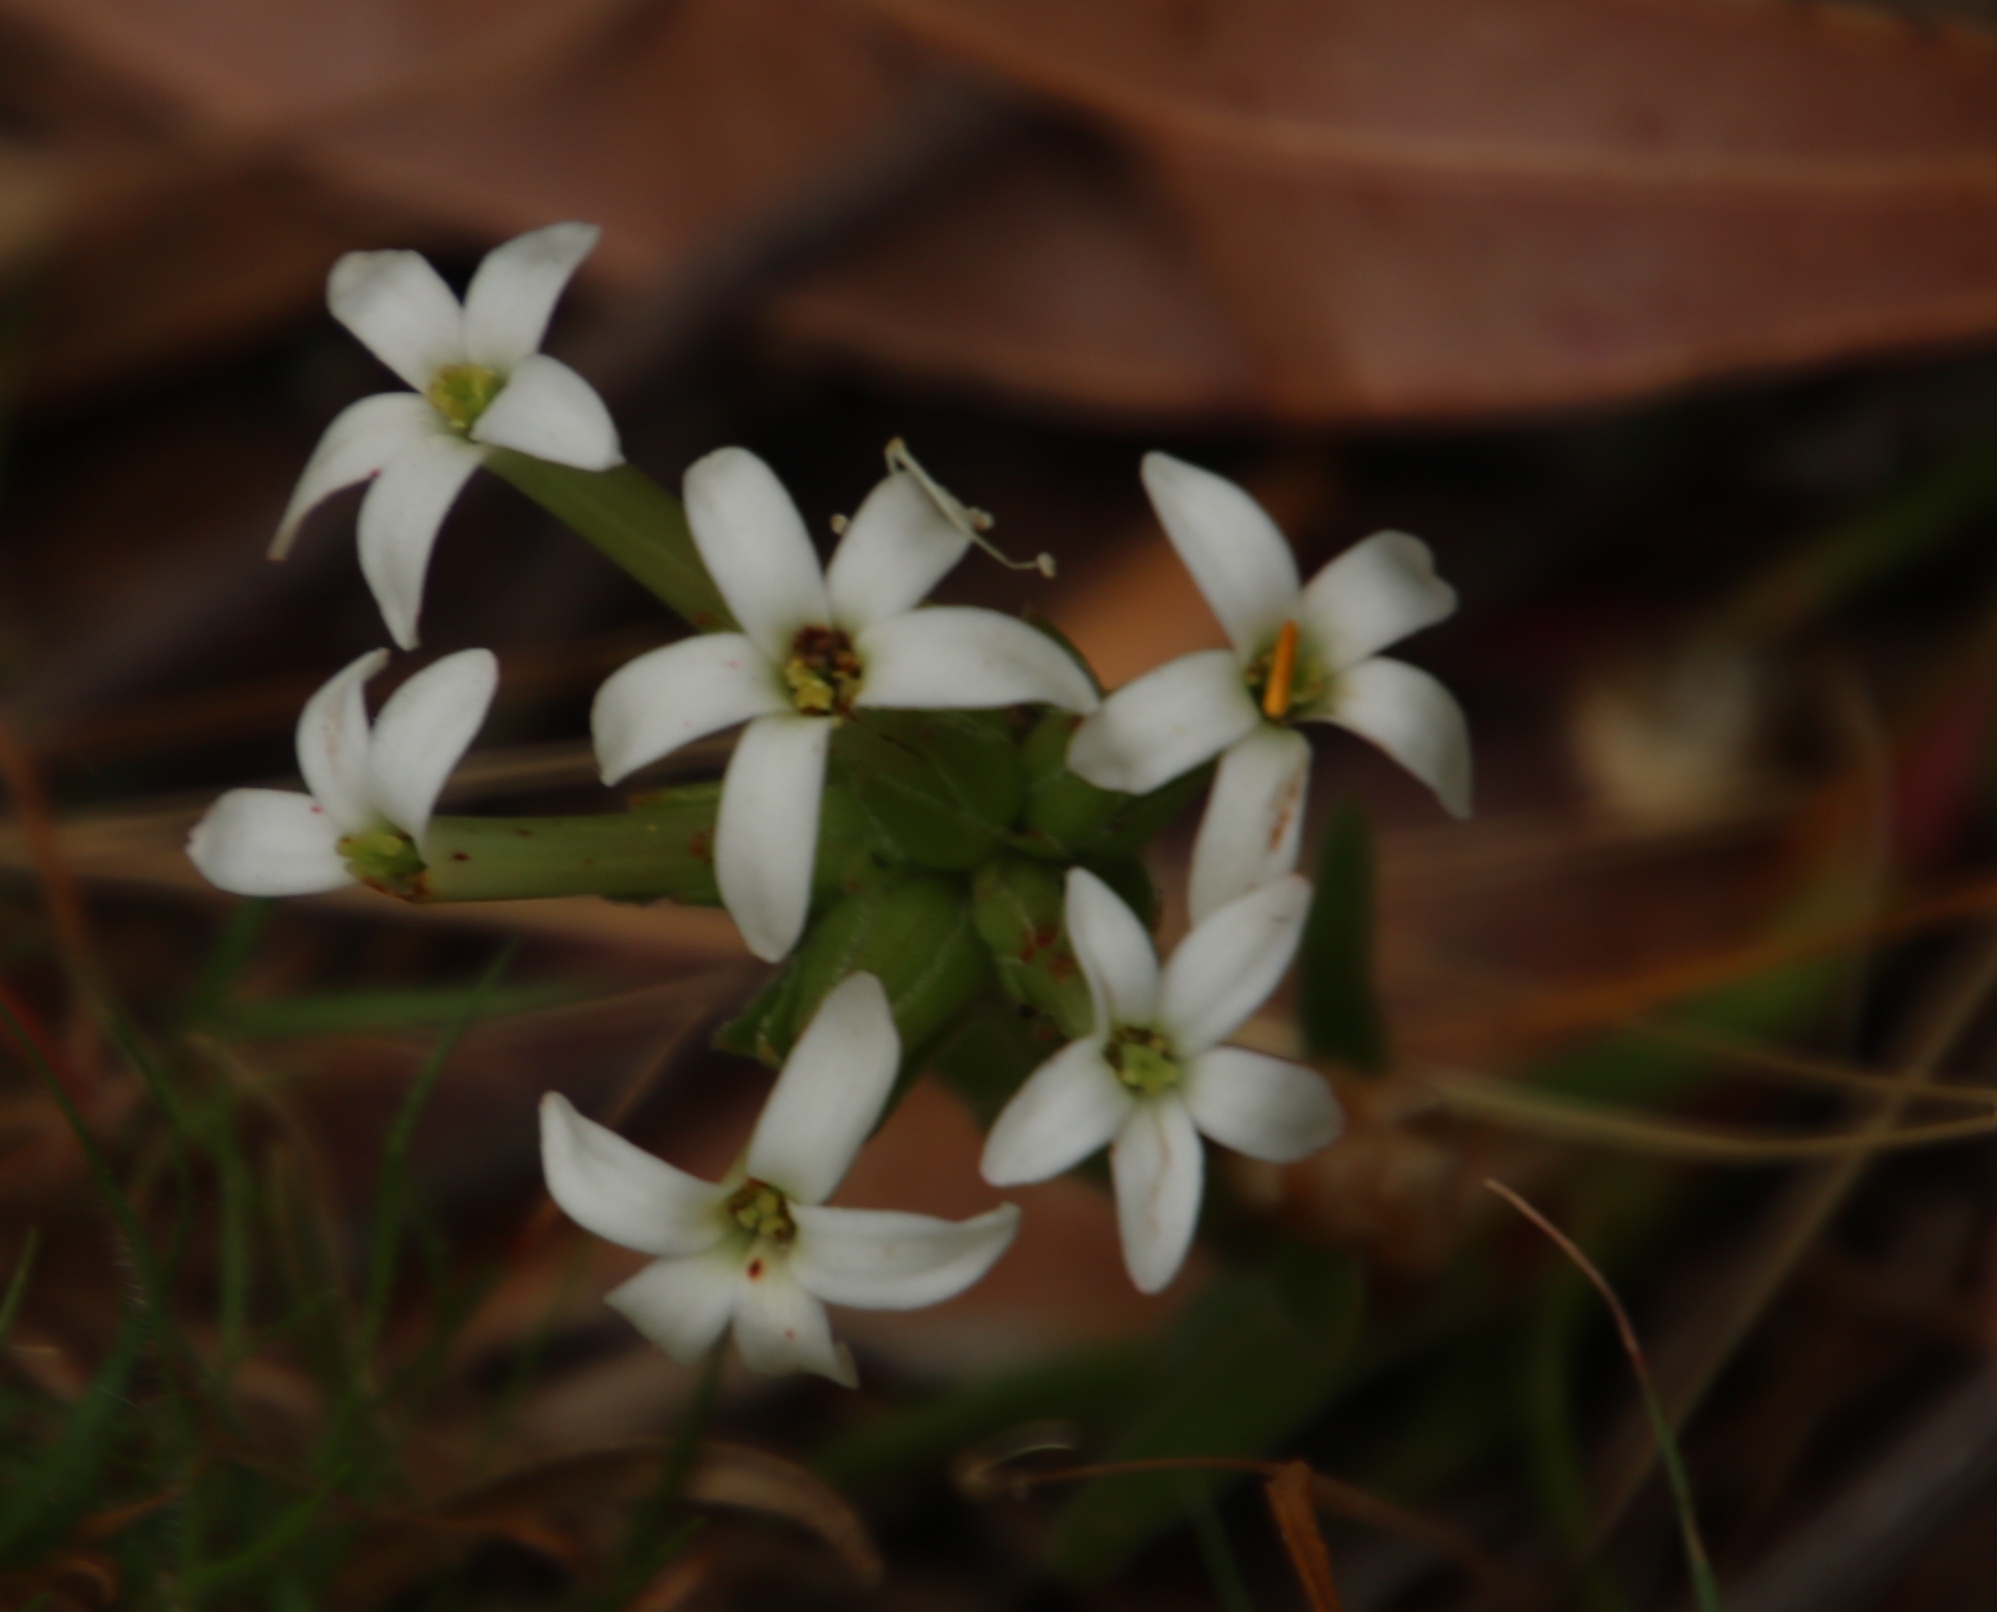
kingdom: Plantae
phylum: Tracheophyta
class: Magnoliopsida
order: Saxifragales
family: Crassulaceae
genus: Crassula
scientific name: Crassula fascicularis
